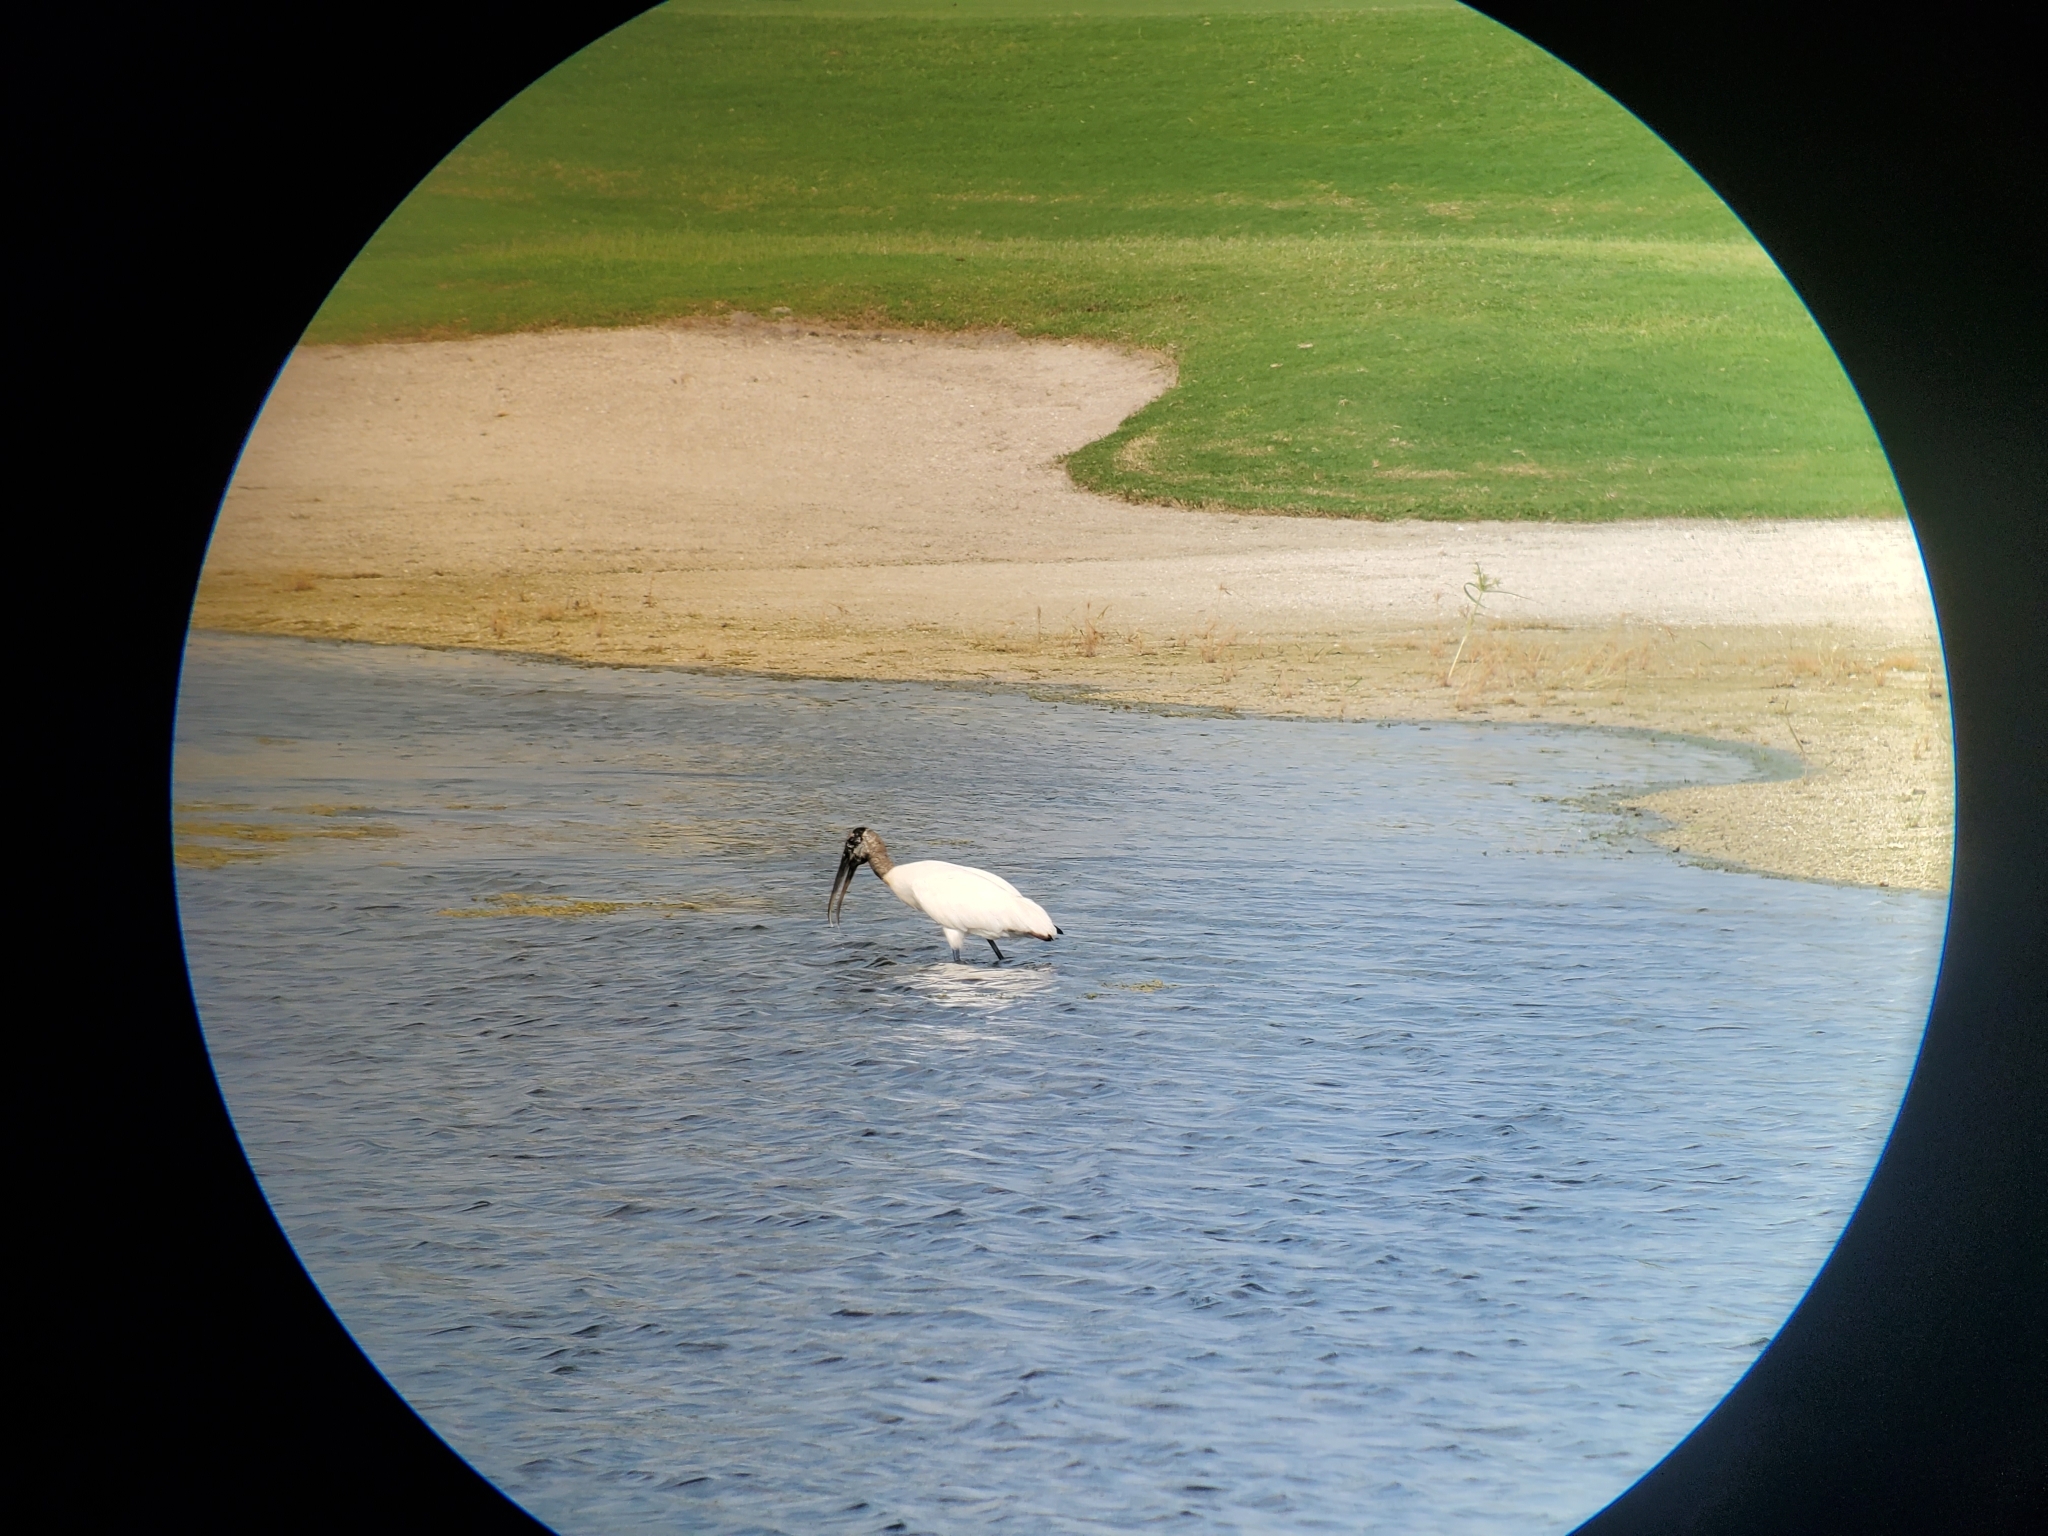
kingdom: Animalia
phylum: Chordata
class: Aves
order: Ciconiiformes
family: Ciconiidae
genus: Mycteria
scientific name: Mycteria americana
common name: Wood stork
